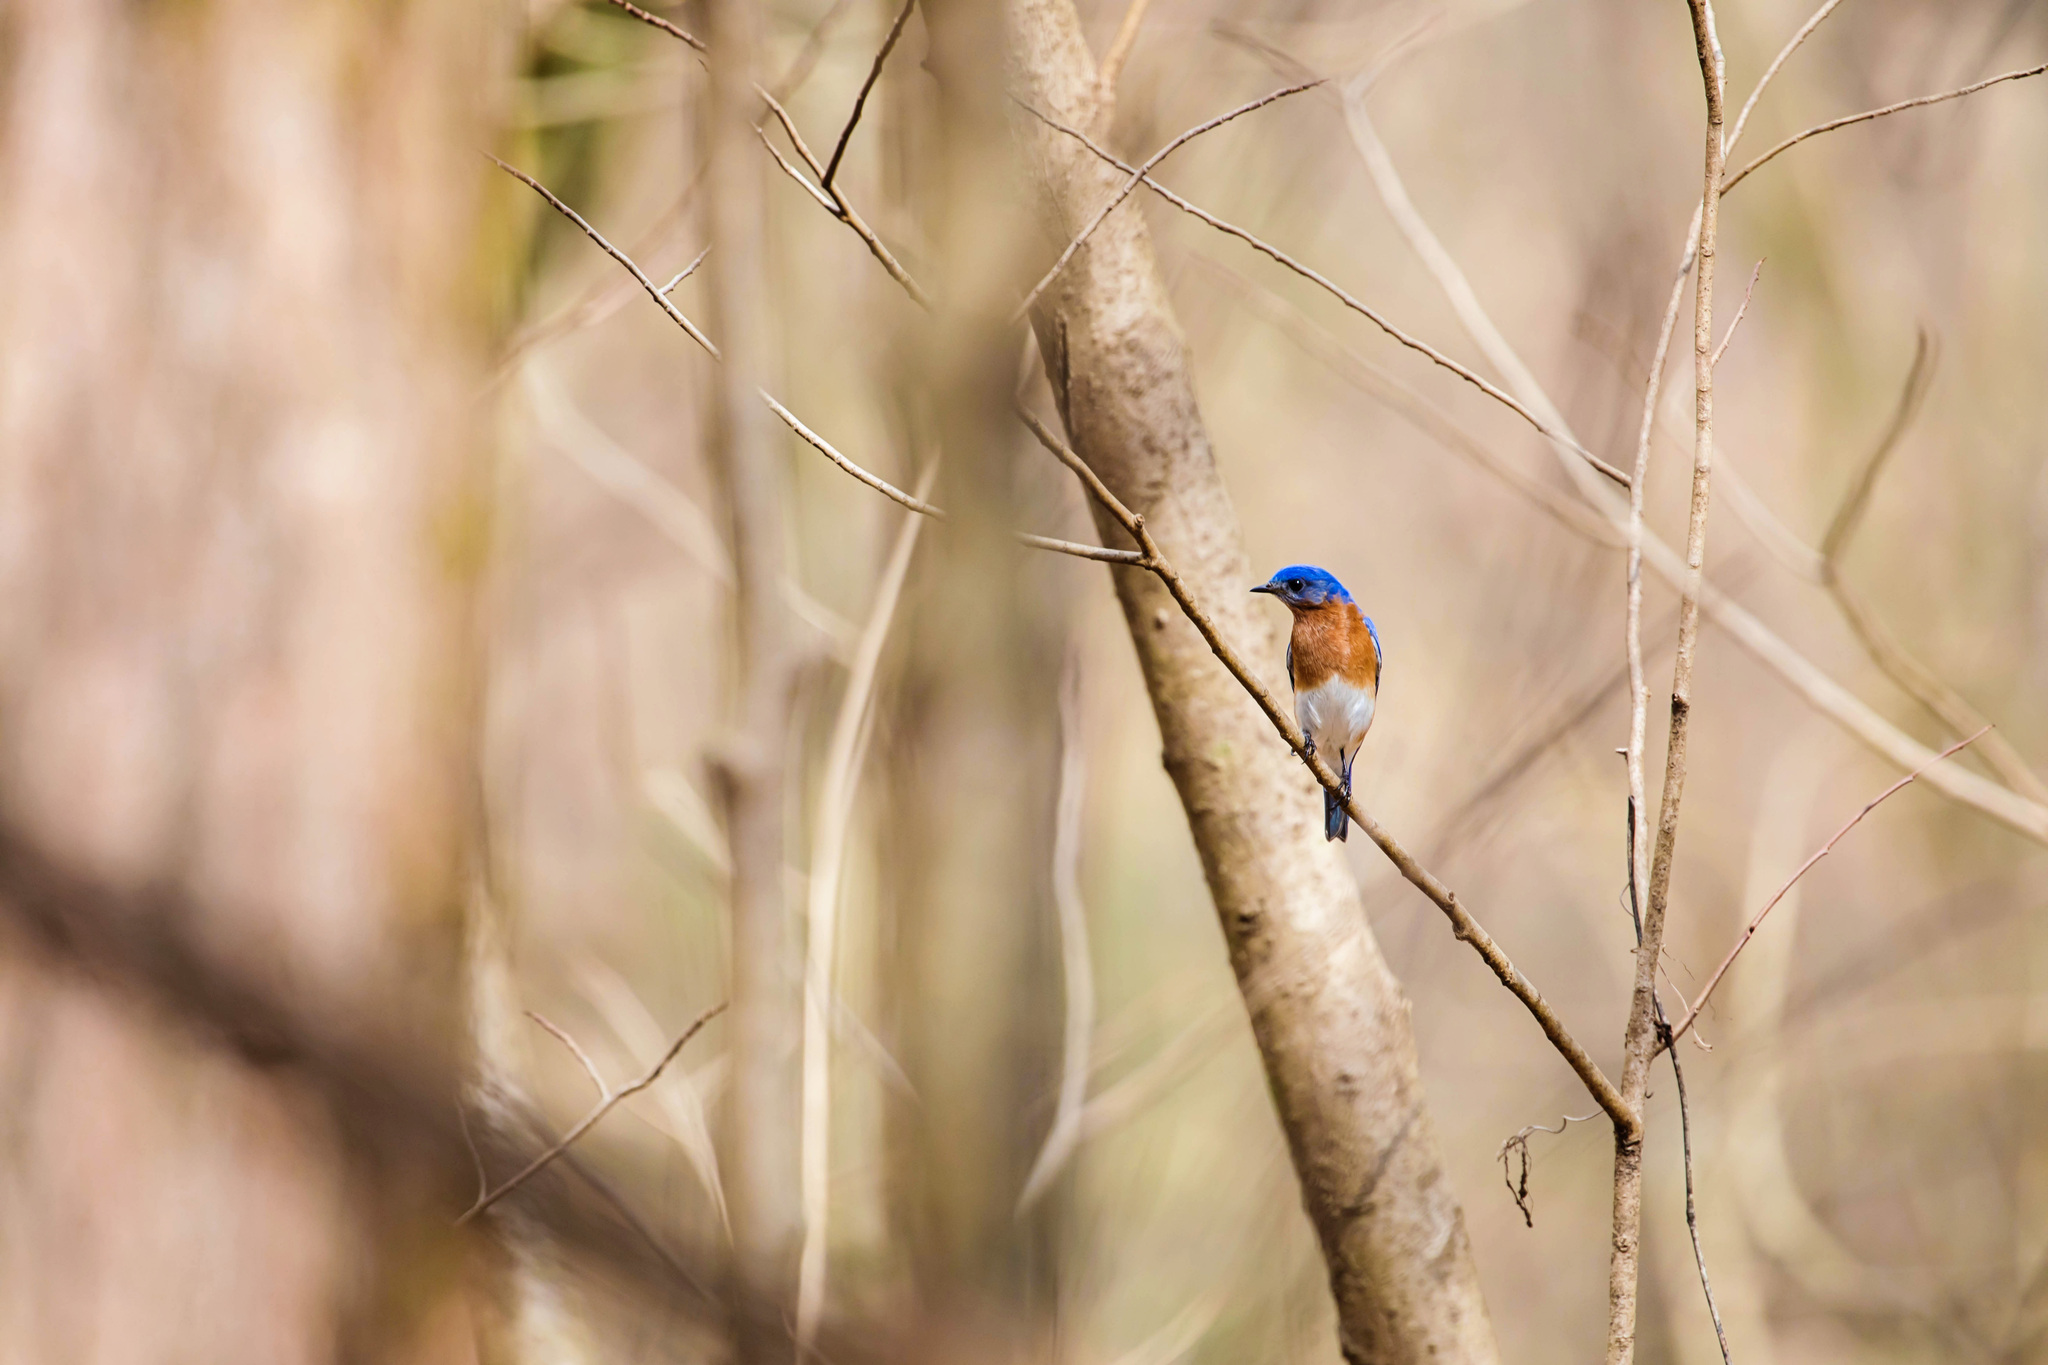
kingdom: Animalia
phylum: Chordata
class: Aves
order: Passeriformes
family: Turdidae
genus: Sialia
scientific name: Sialia sialis
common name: Eastern bluebird
